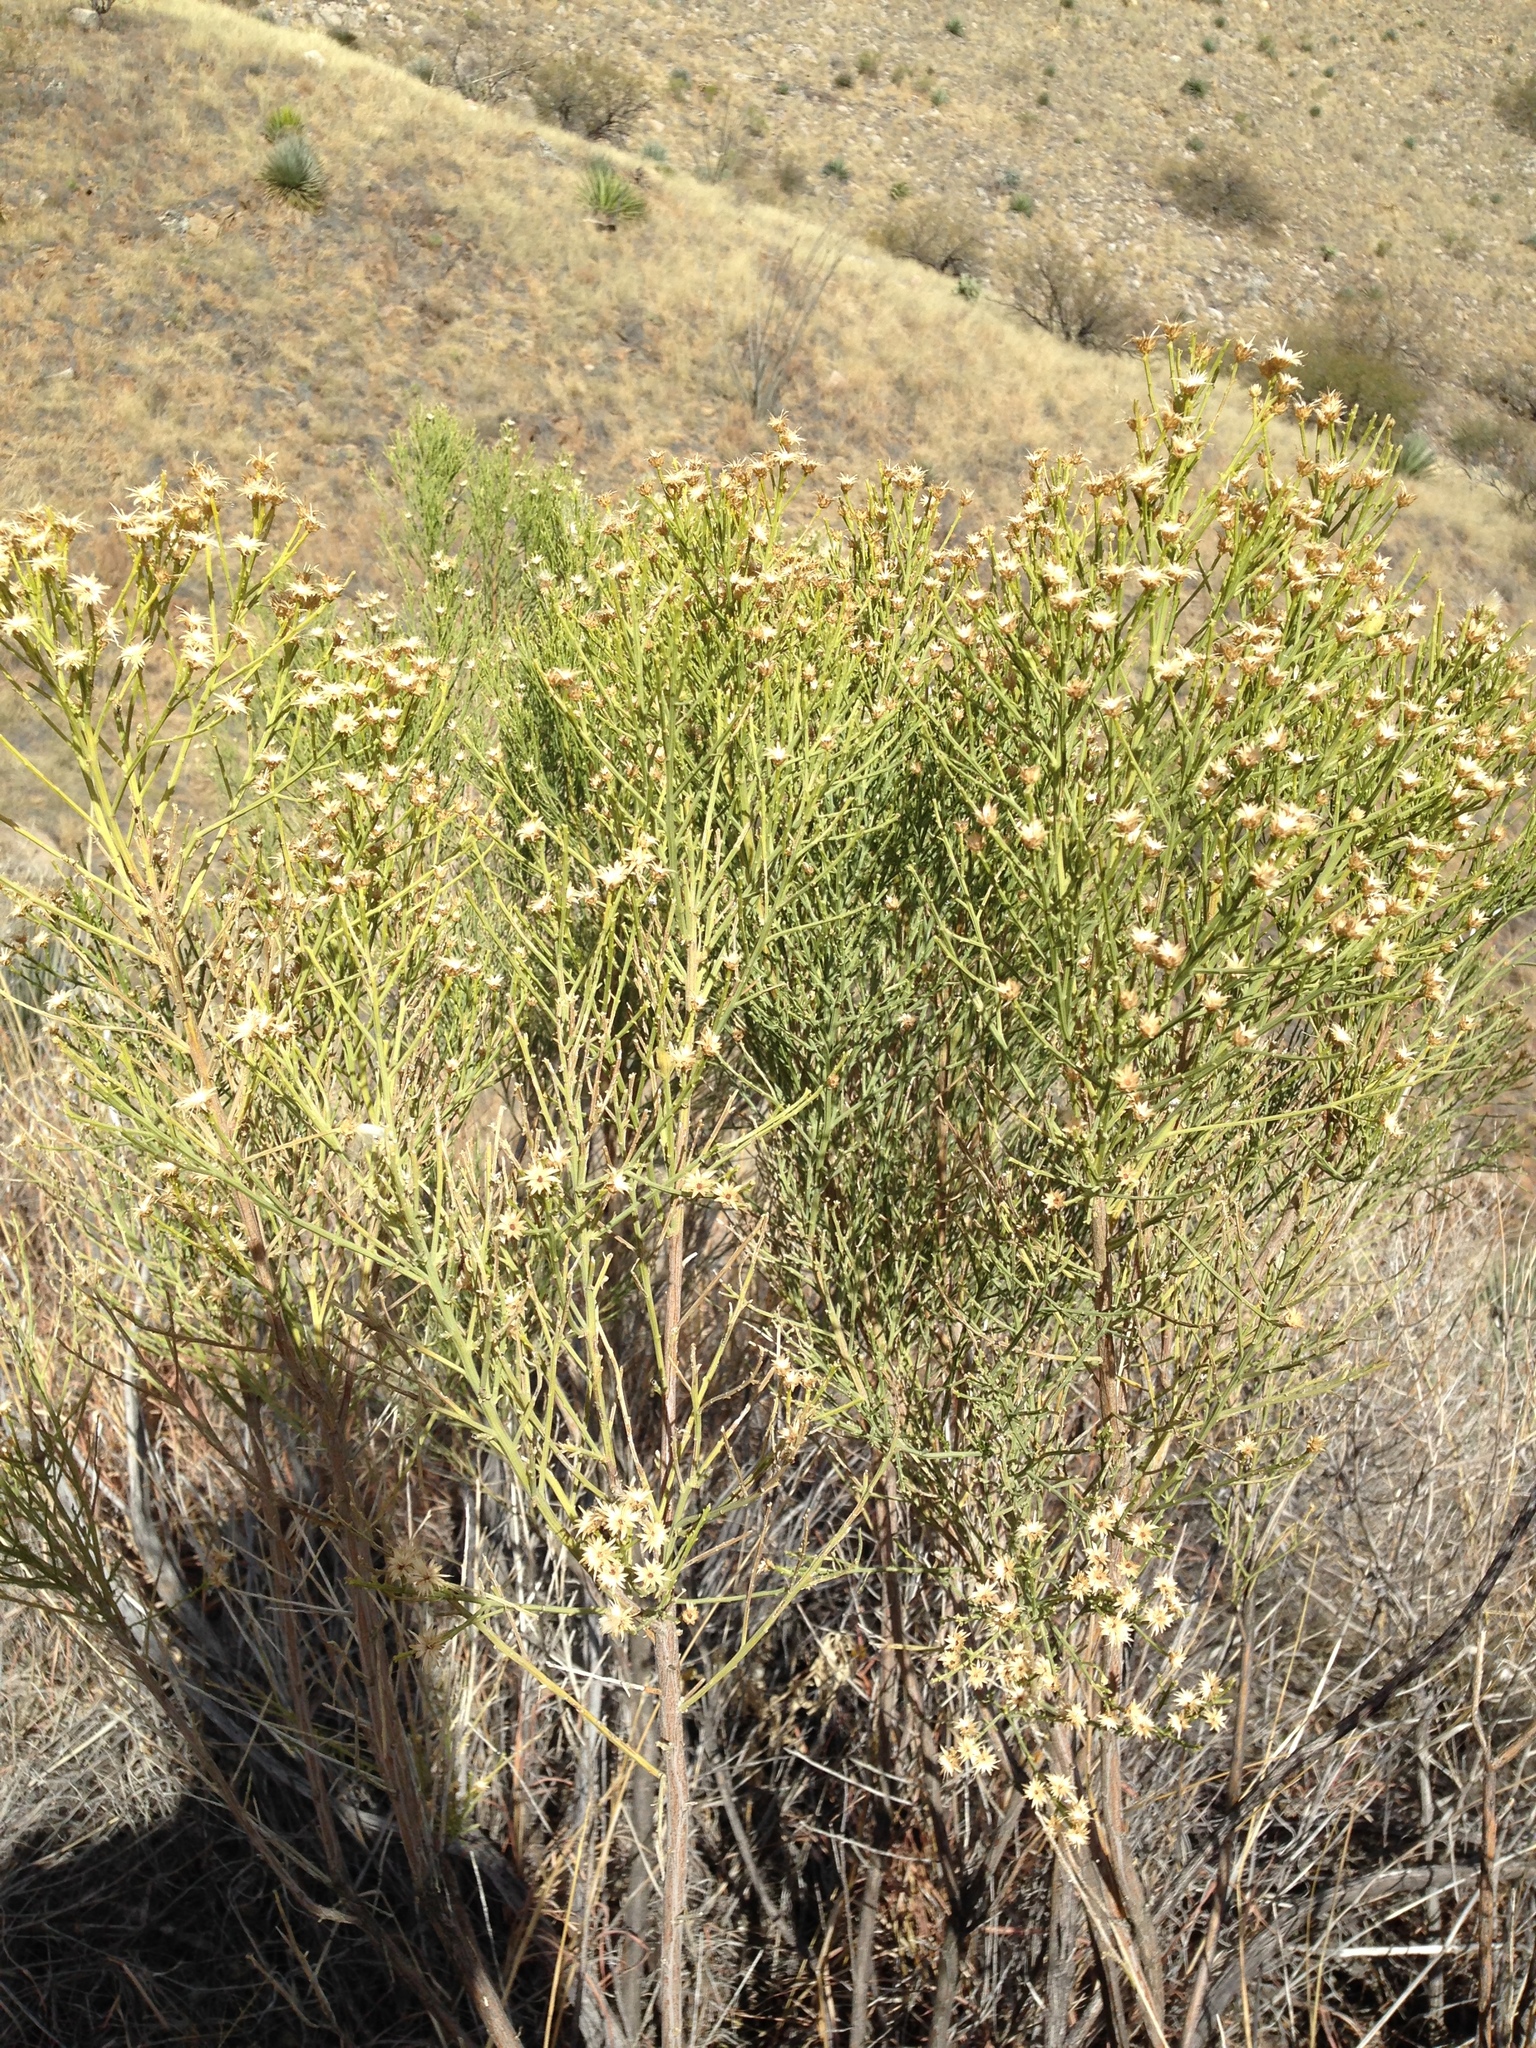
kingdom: Plantae
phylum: Tracheophyta
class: Magnoliopsida
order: Asterales
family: Asteraceae
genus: Baccharis
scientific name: Baccharis sarothroides
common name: Desert-broom
